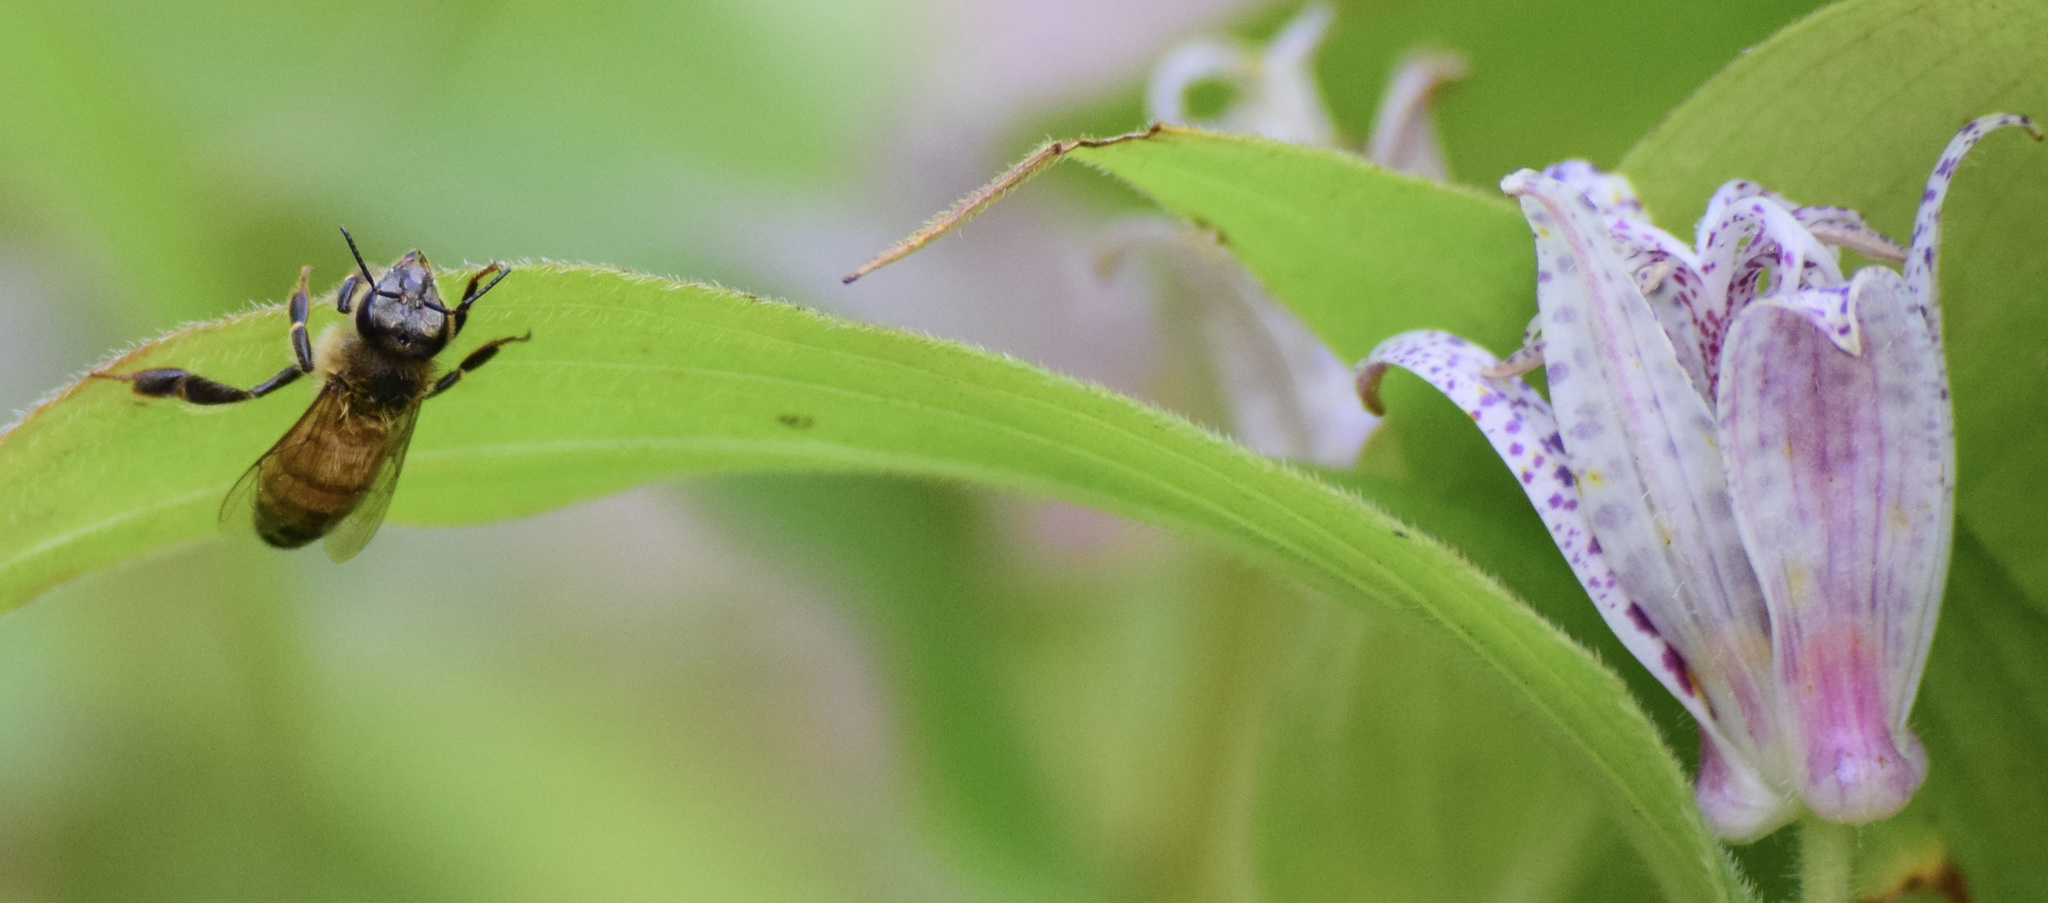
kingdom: Animalia
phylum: Arthropoda
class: Insecta
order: Hymenoptera
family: Apidae
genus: Apis
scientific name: Apis mellifera
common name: Honey bee
